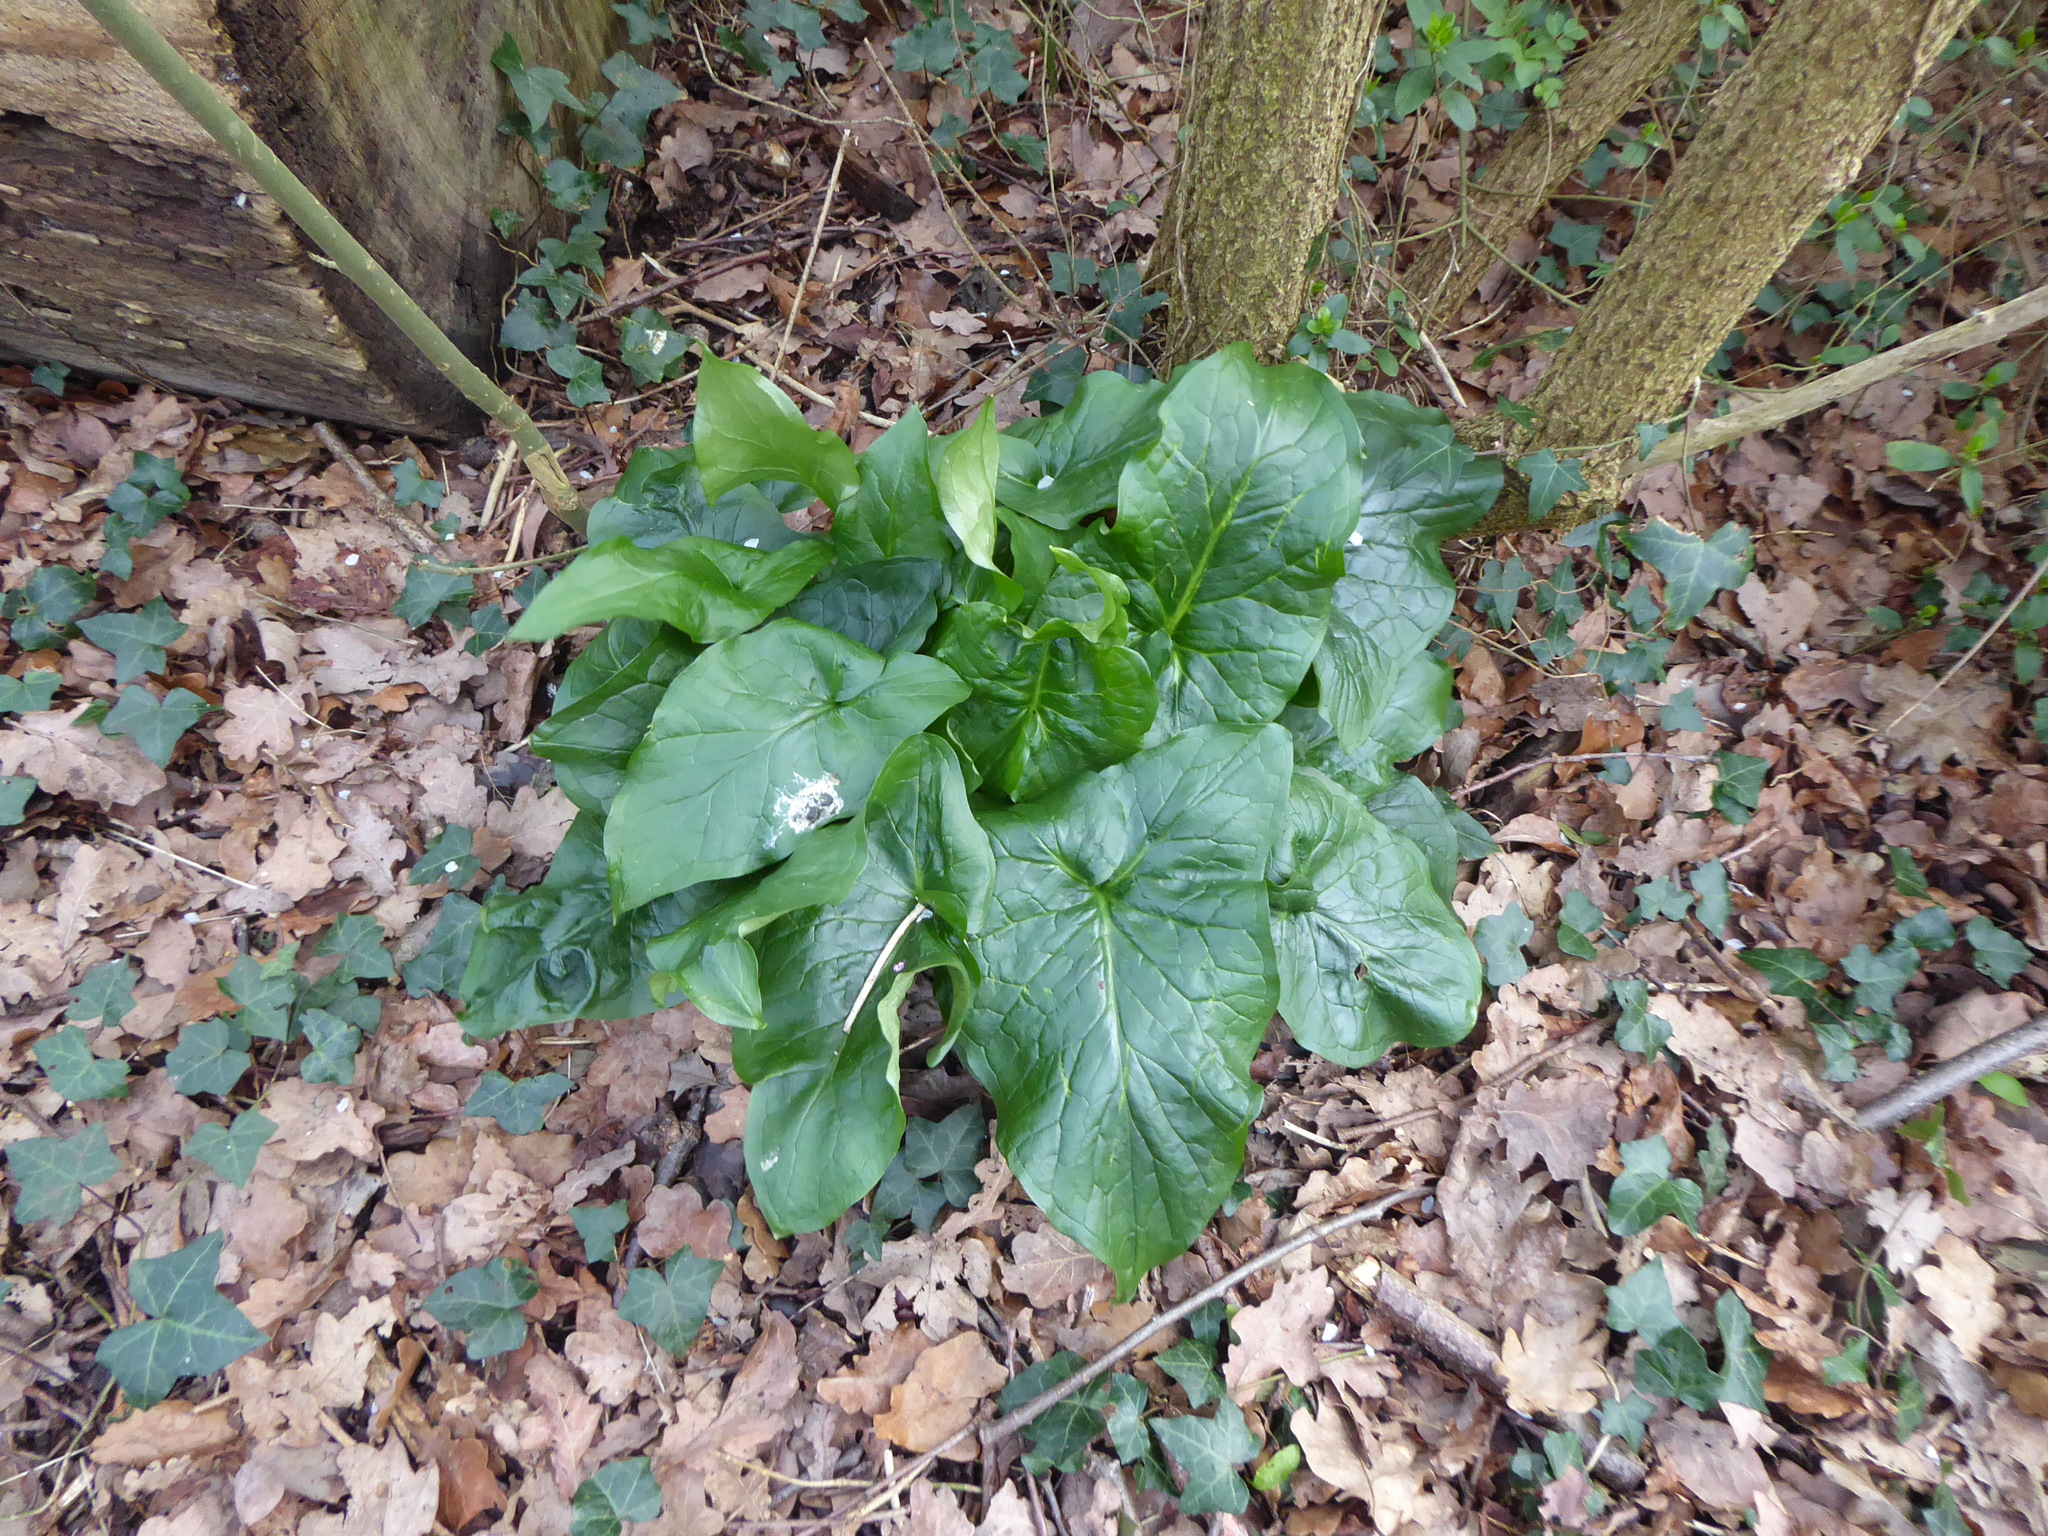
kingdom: Plantae
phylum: Tracheophyta
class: Liliopsida
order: Alismatales
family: Araceae
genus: Arum
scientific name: Arum maculatum
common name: Lords-and-ladies
